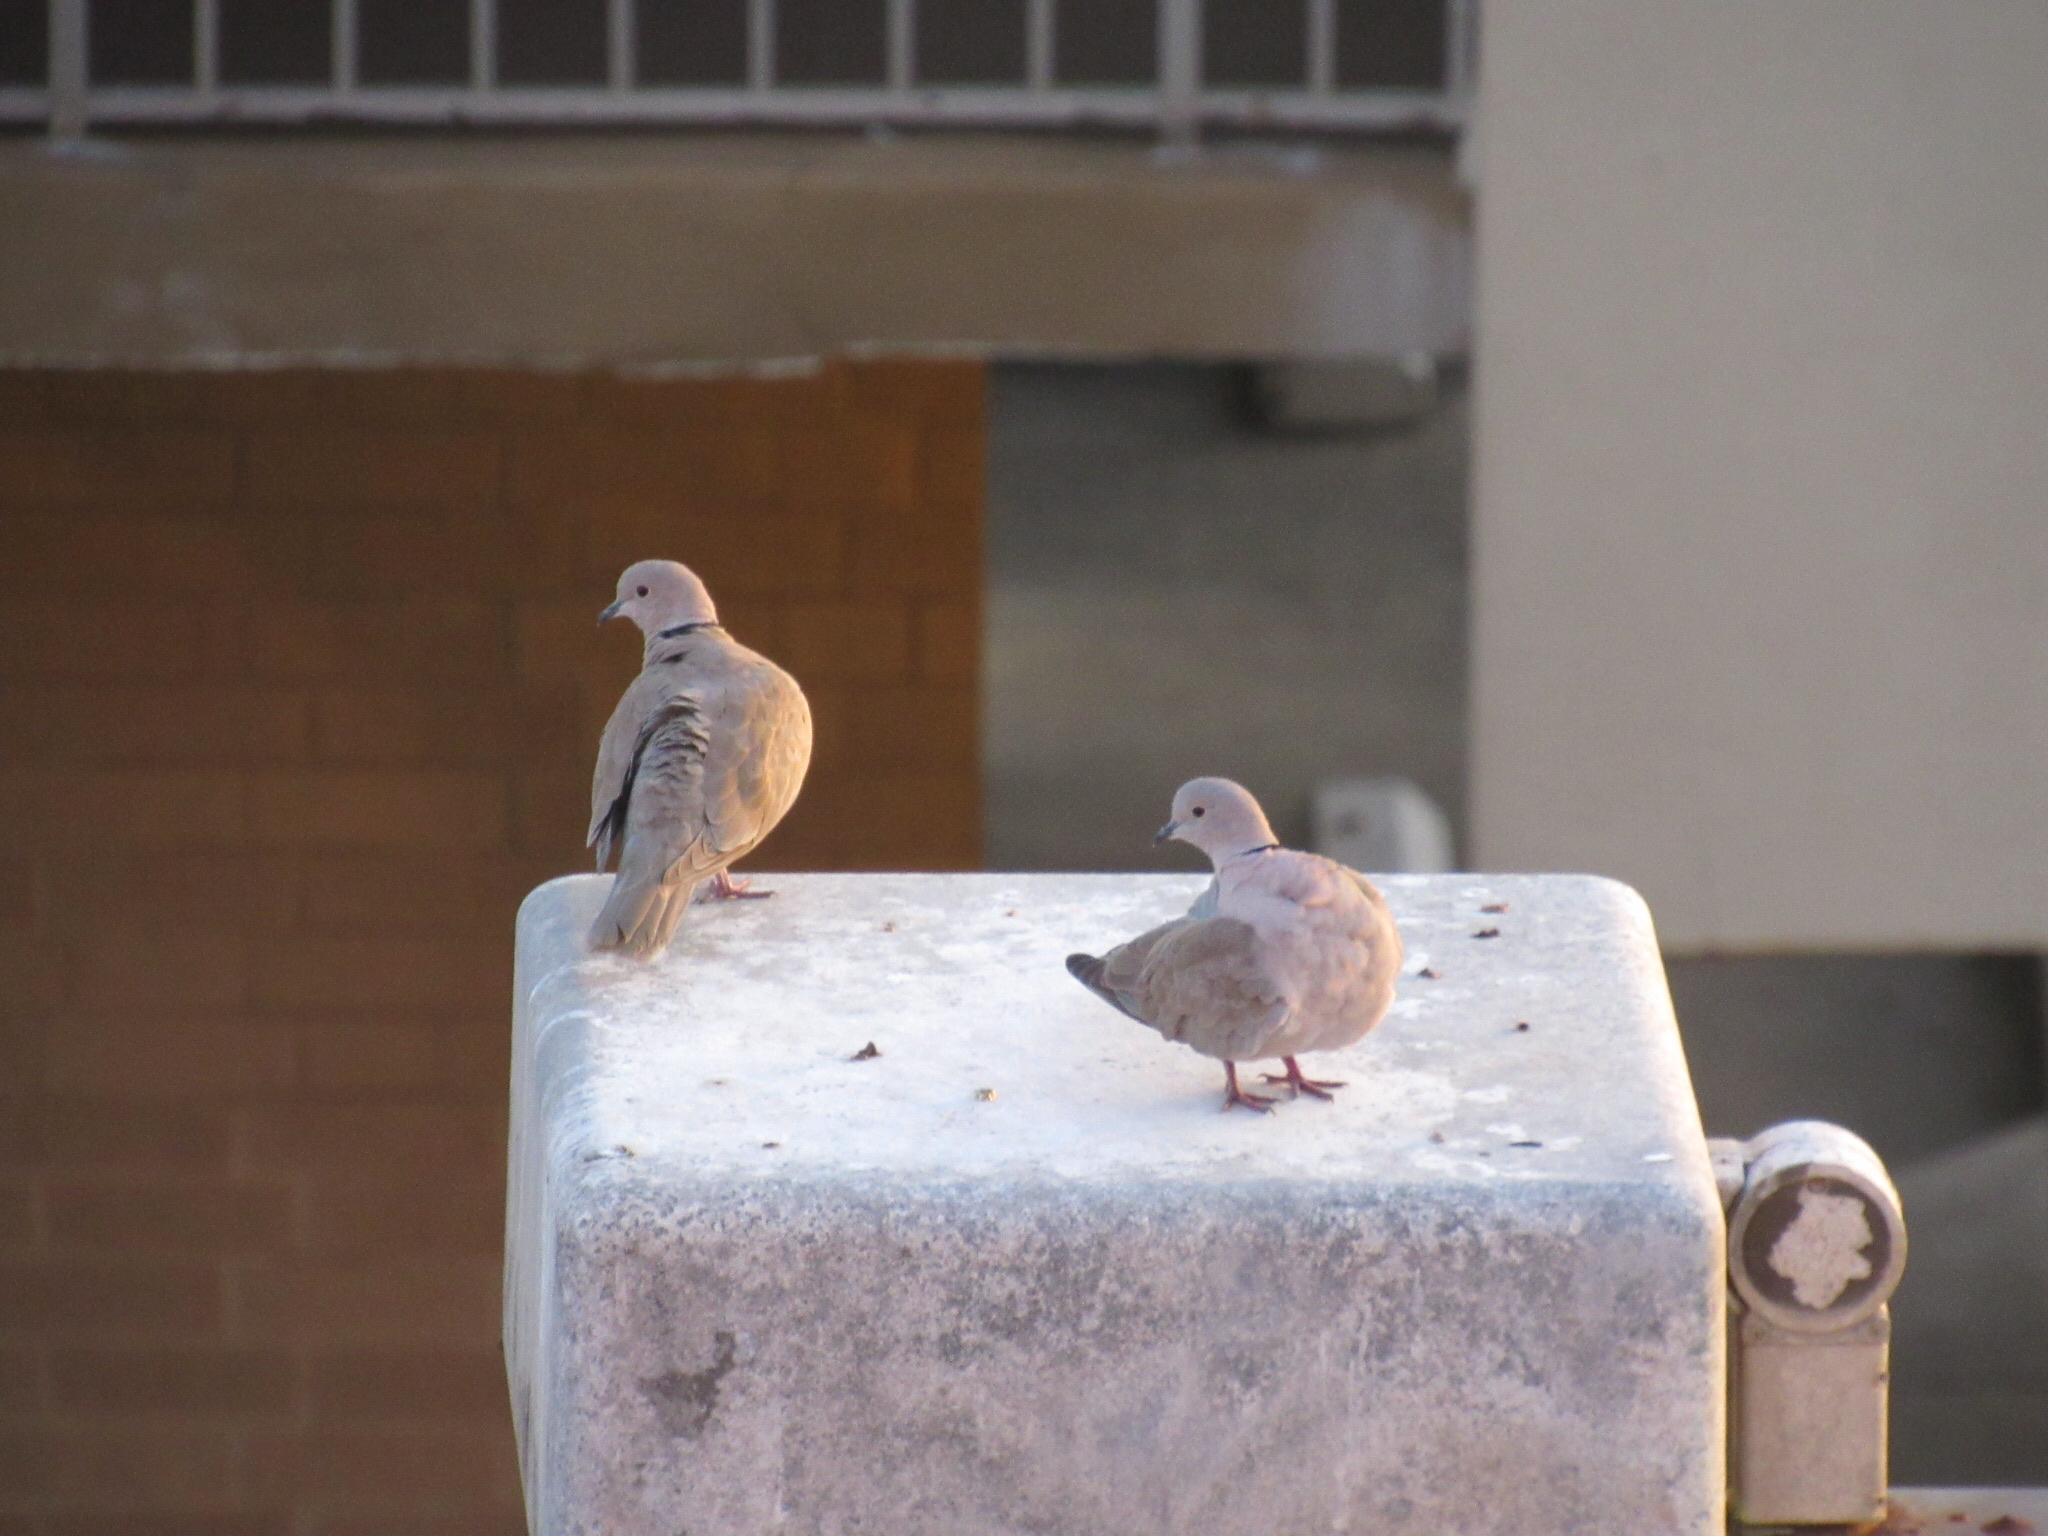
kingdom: Animalia
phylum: Chordata
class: Aves
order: Columbiformes
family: Columbidae
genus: Streptopelia
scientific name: Streptopelia decaocto
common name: Eurasian collared dove
